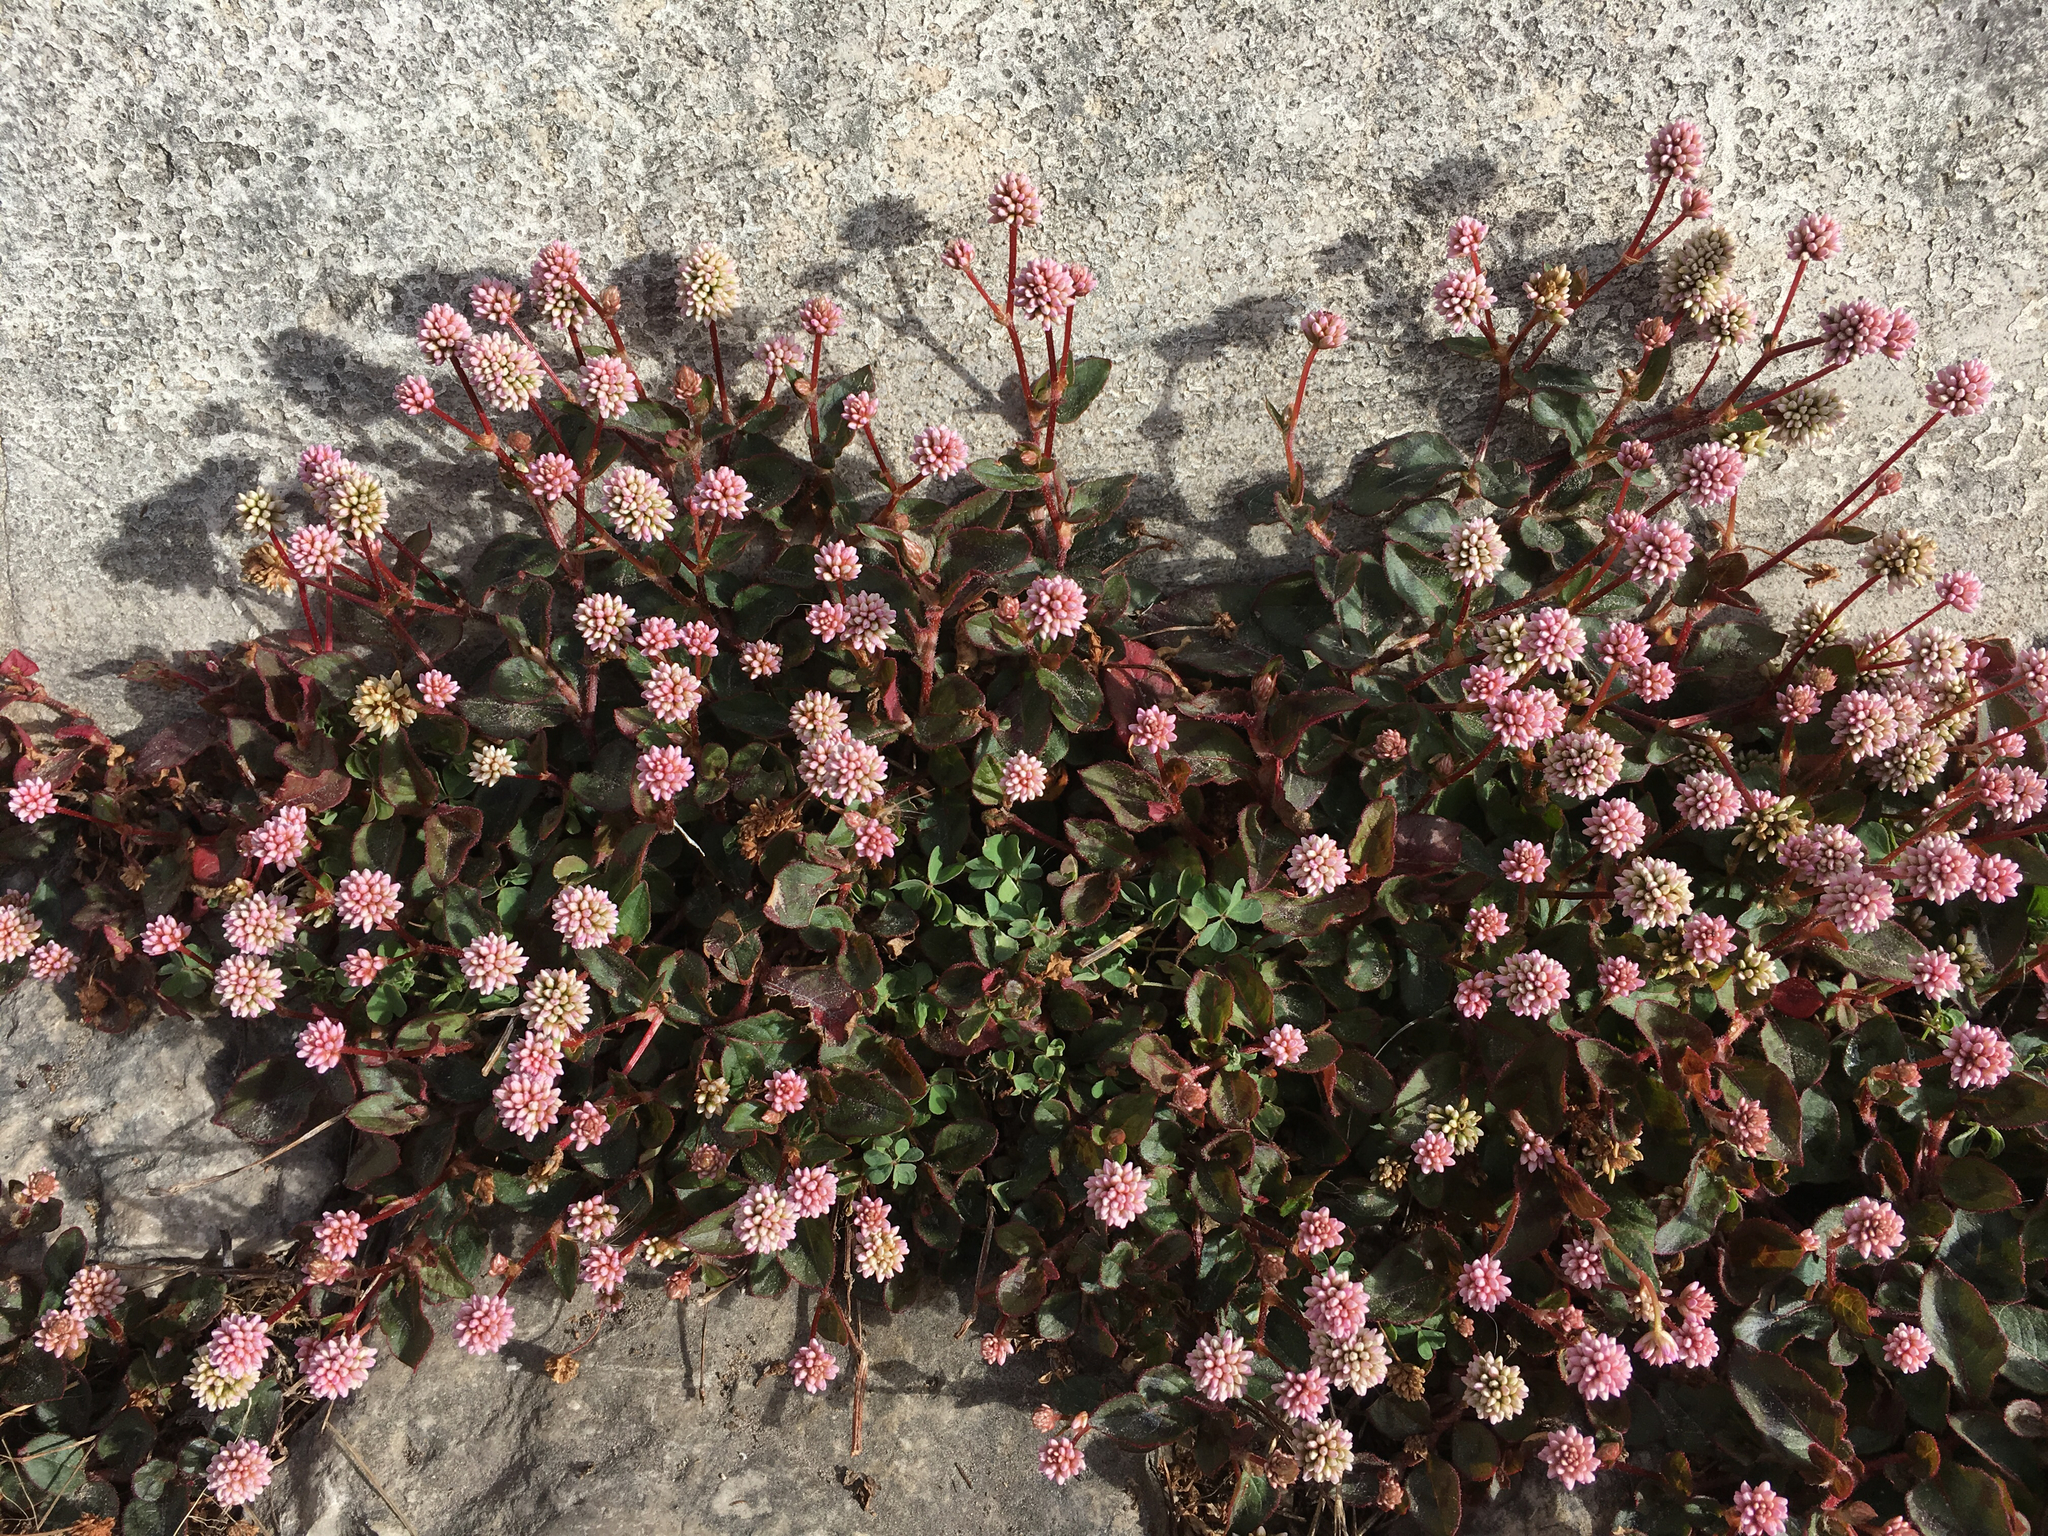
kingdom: Plantae
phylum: Tracheophyta
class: Magnoliopsida
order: Caryophyllales
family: Polygonaceae
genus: Persicaria
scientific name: Persicaria capitata
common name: Pinkhead smartweed
